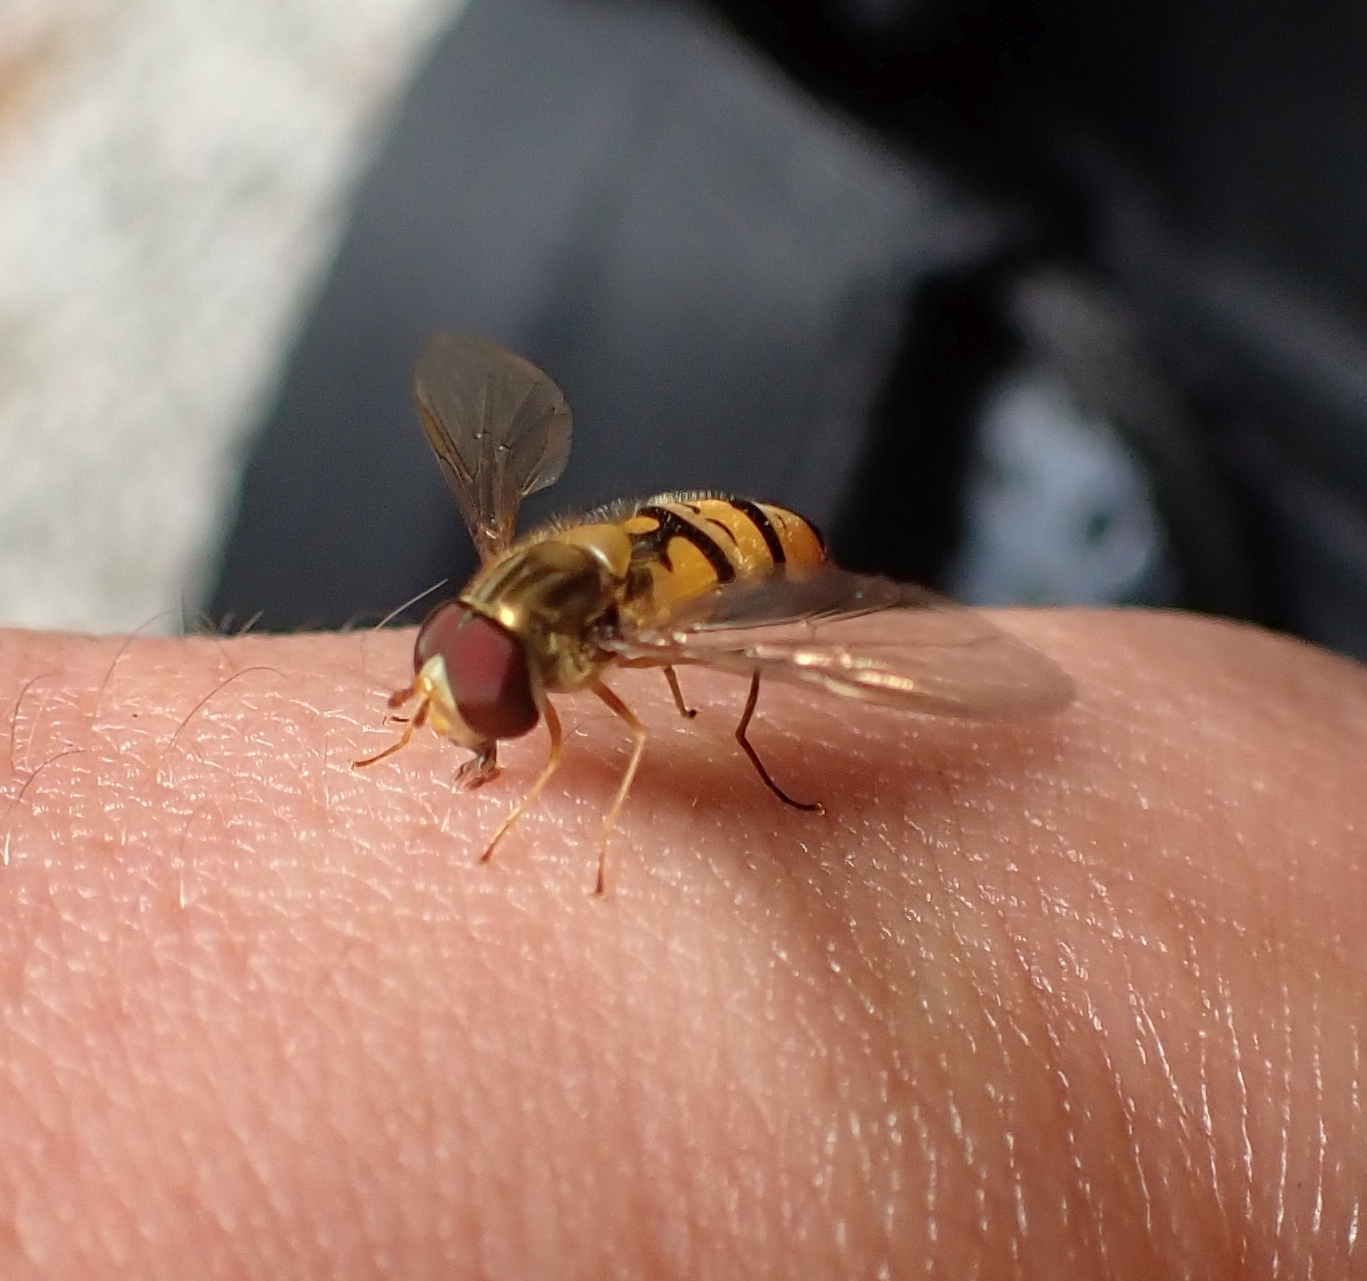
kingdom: Animalia
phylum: Arthropoda
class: Insecta
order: Diptera
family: Syrphidae
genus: Episyrphus
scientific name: Episyrphus balteatus
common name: Marmalade hoverfly
